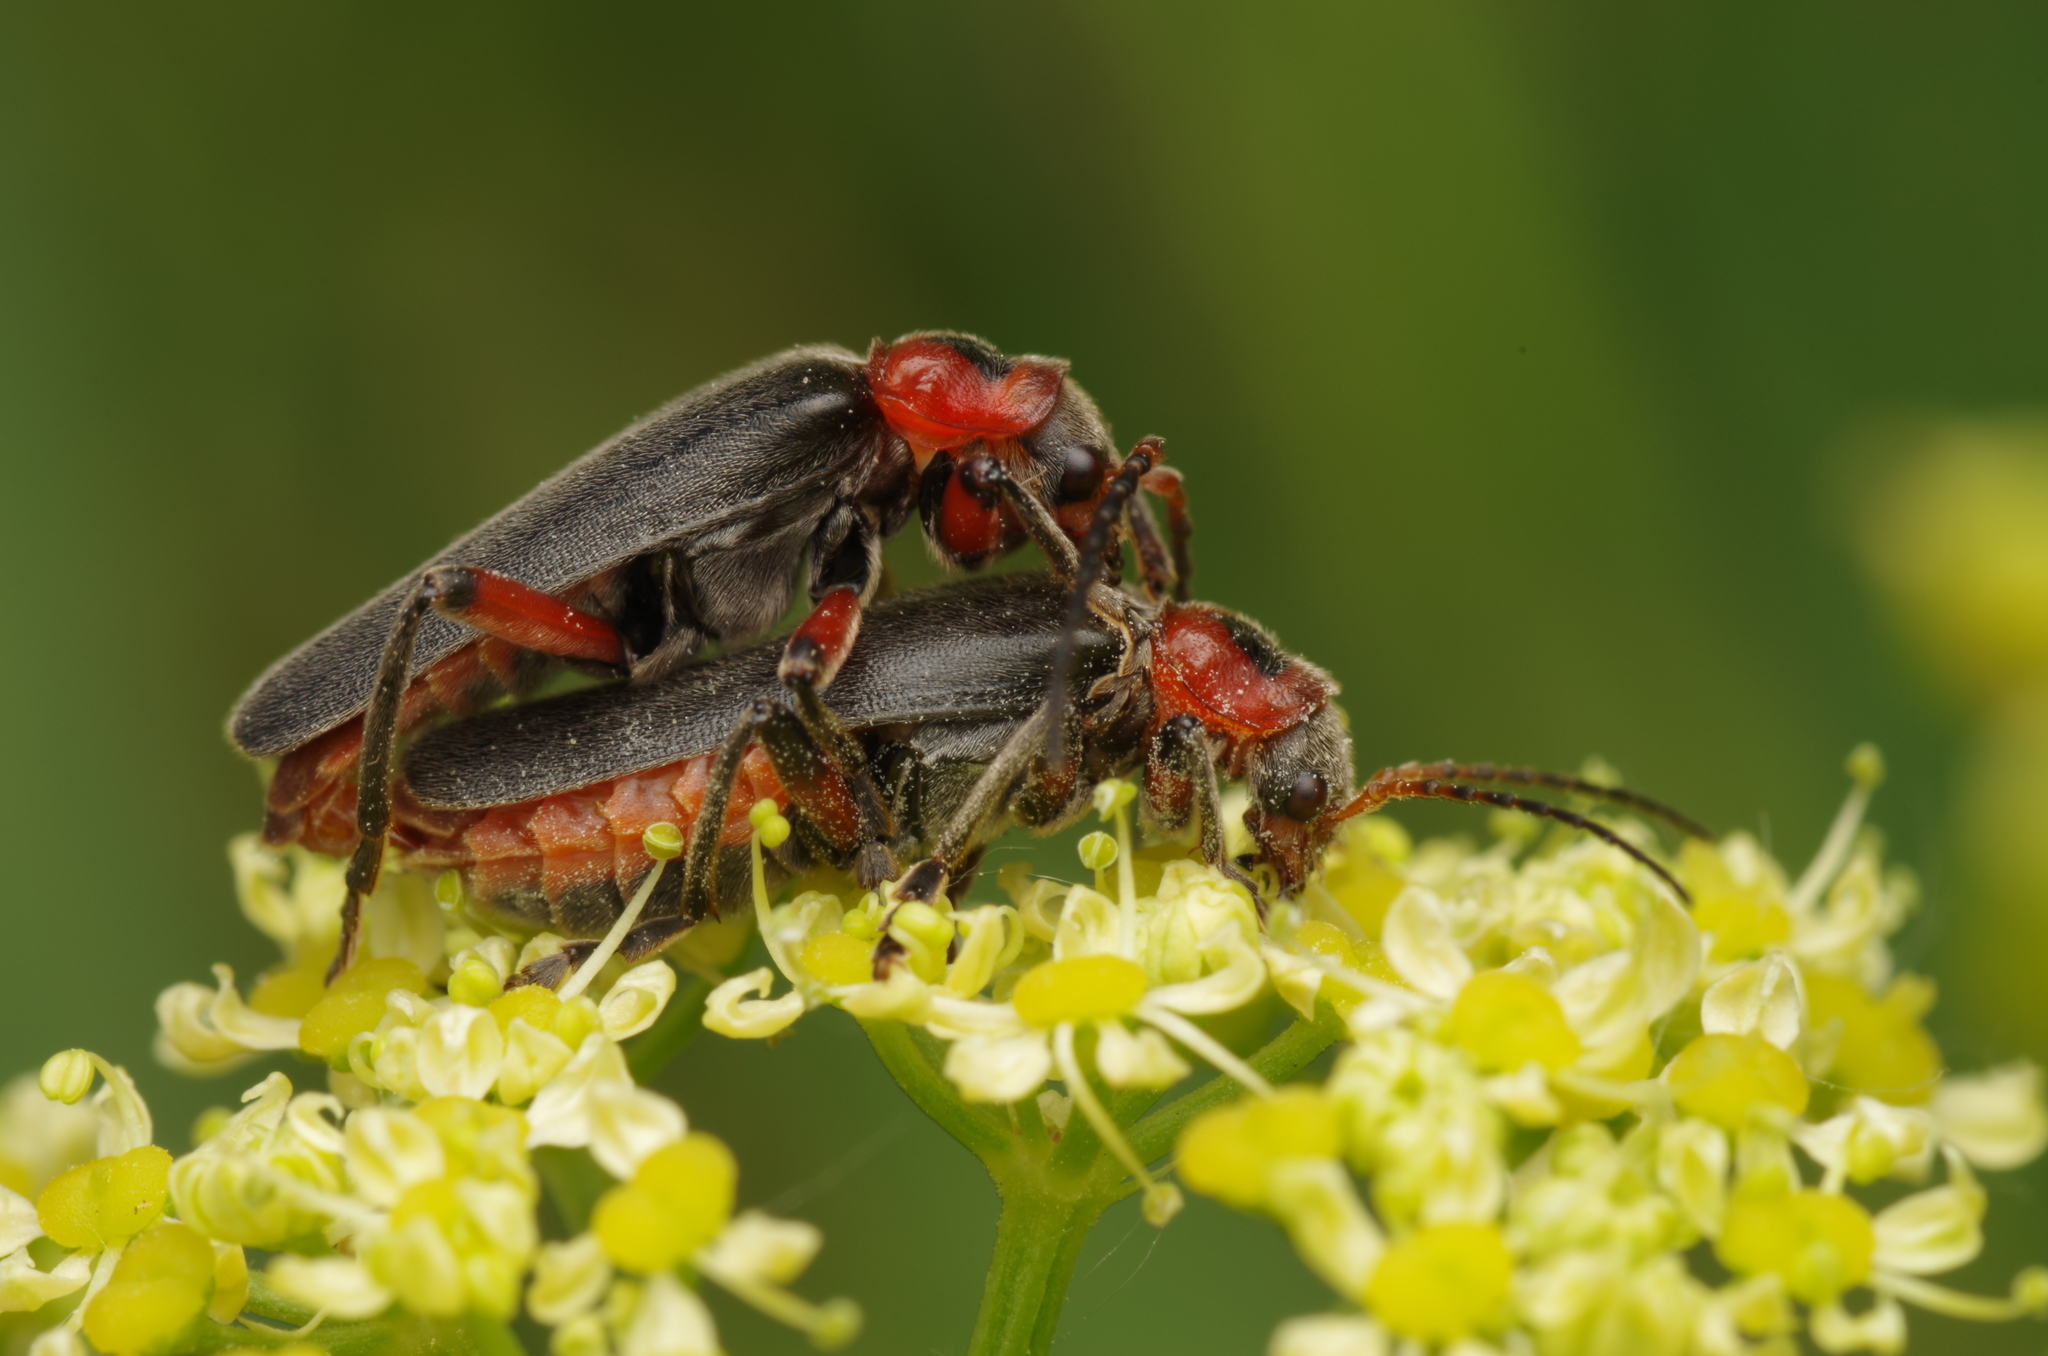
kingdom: Animalia
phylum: Arthropoda
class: Insecta
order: Coleoptera
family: Cantharidae
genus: Cantharis
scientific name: Cantharis rustica
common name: Soldier beetle
